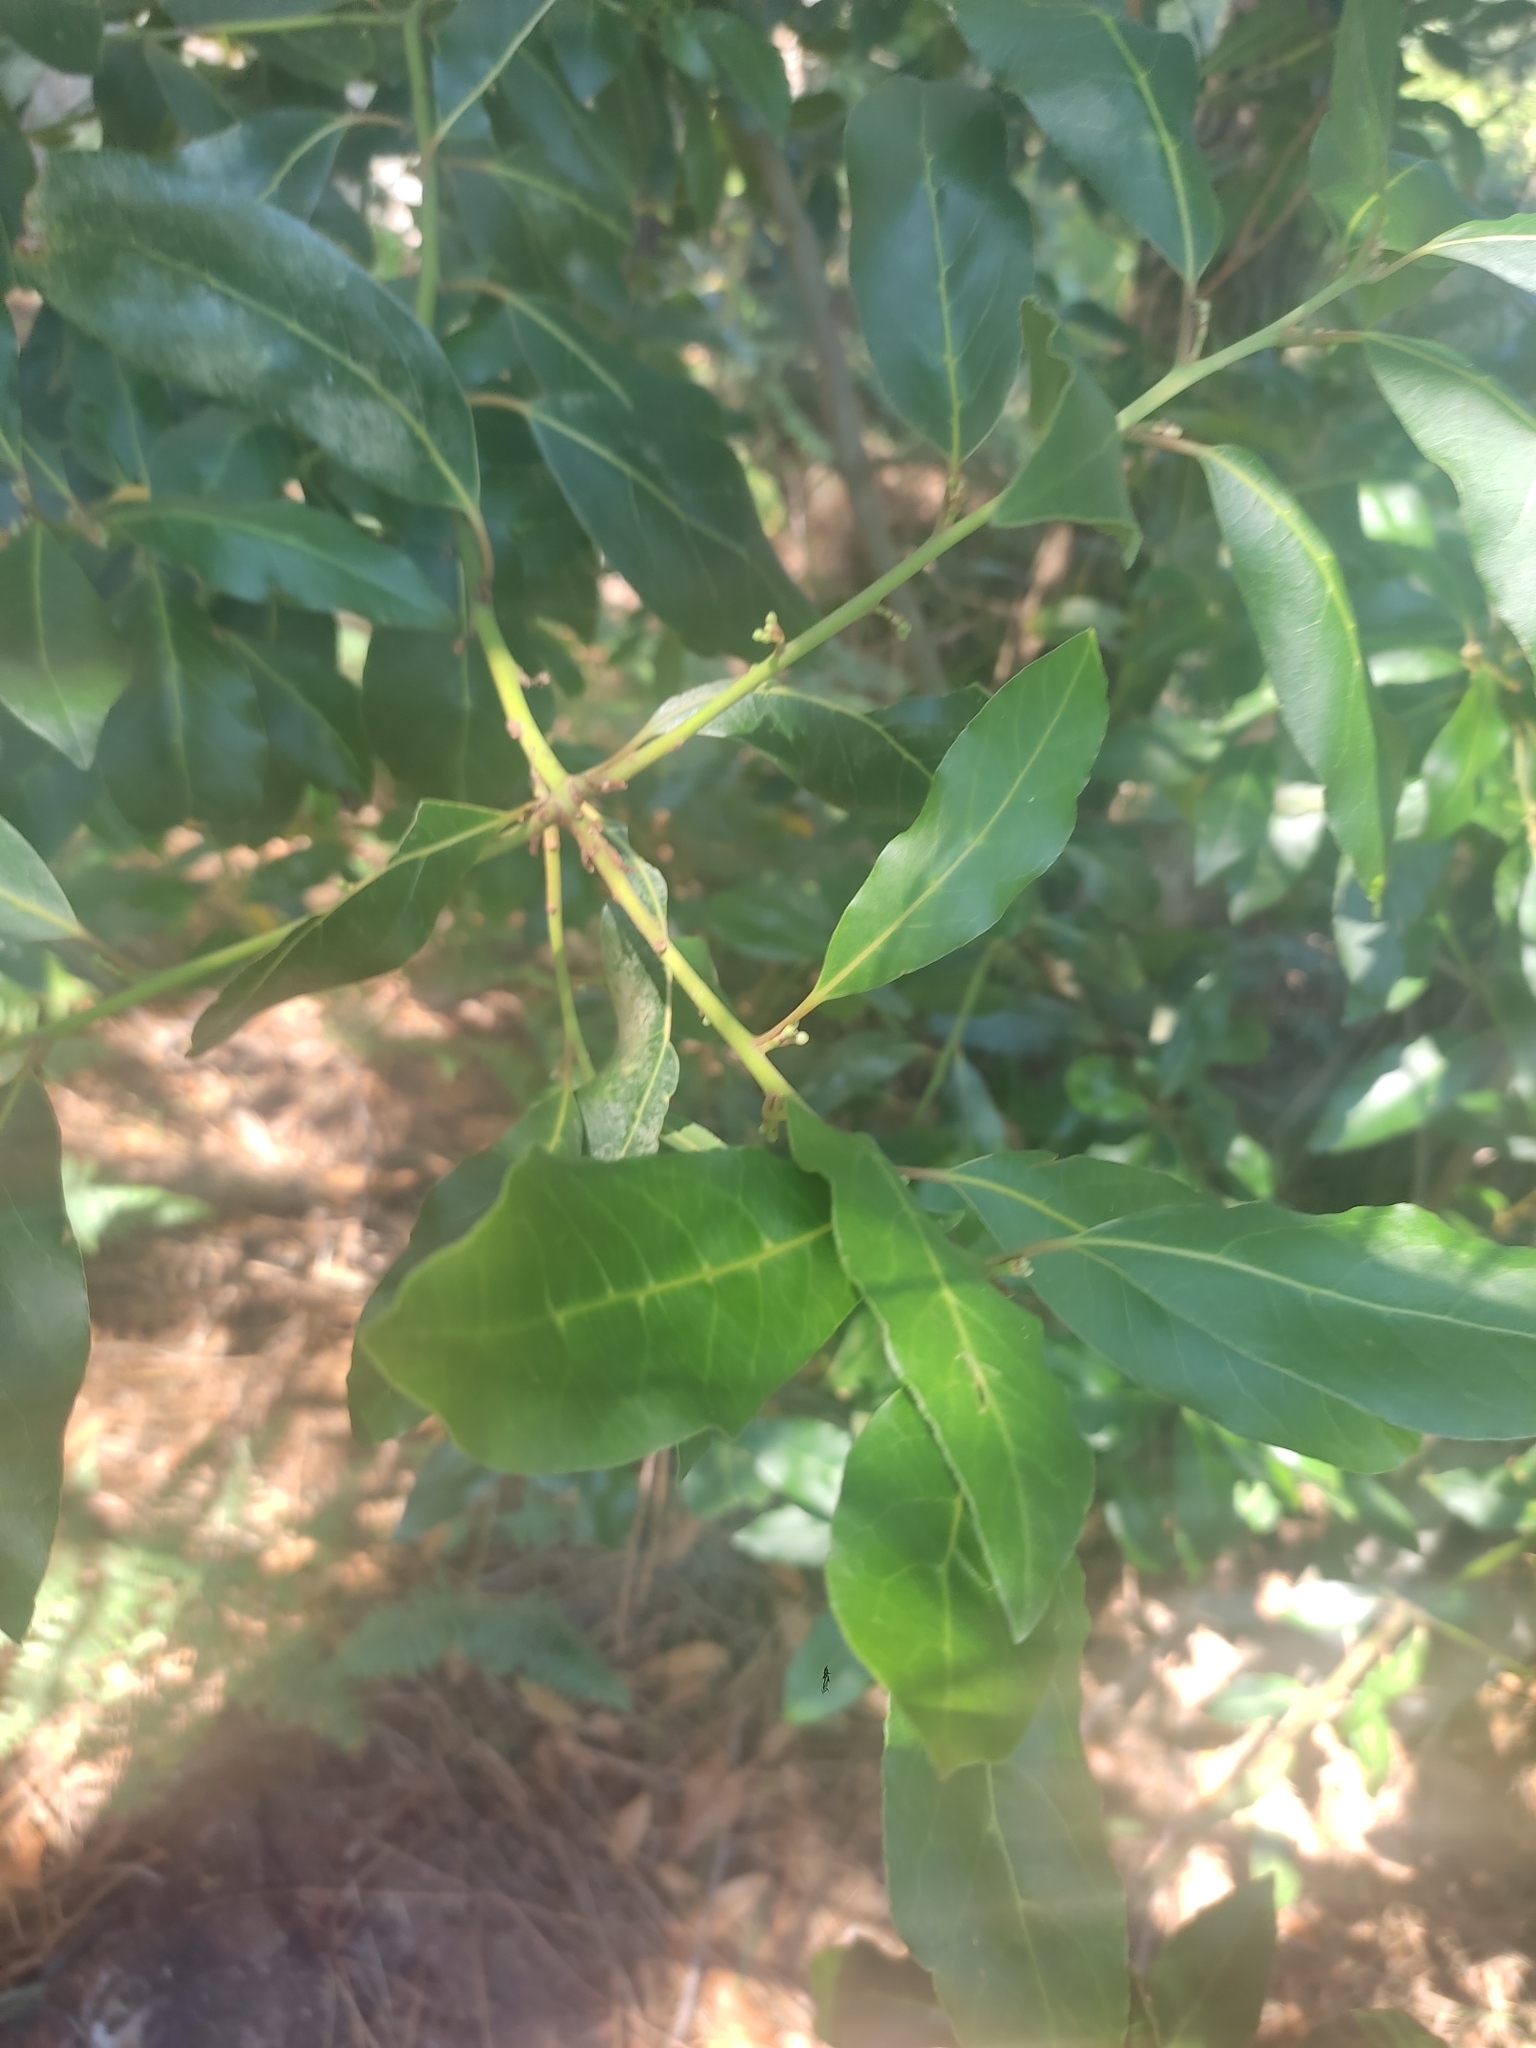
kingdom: Plantae
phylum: Tracheophyta
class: Magnoliopsida
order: Laurales
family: Lauraceae
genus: Laurus
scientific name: Laurus nobilis
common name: Bay
